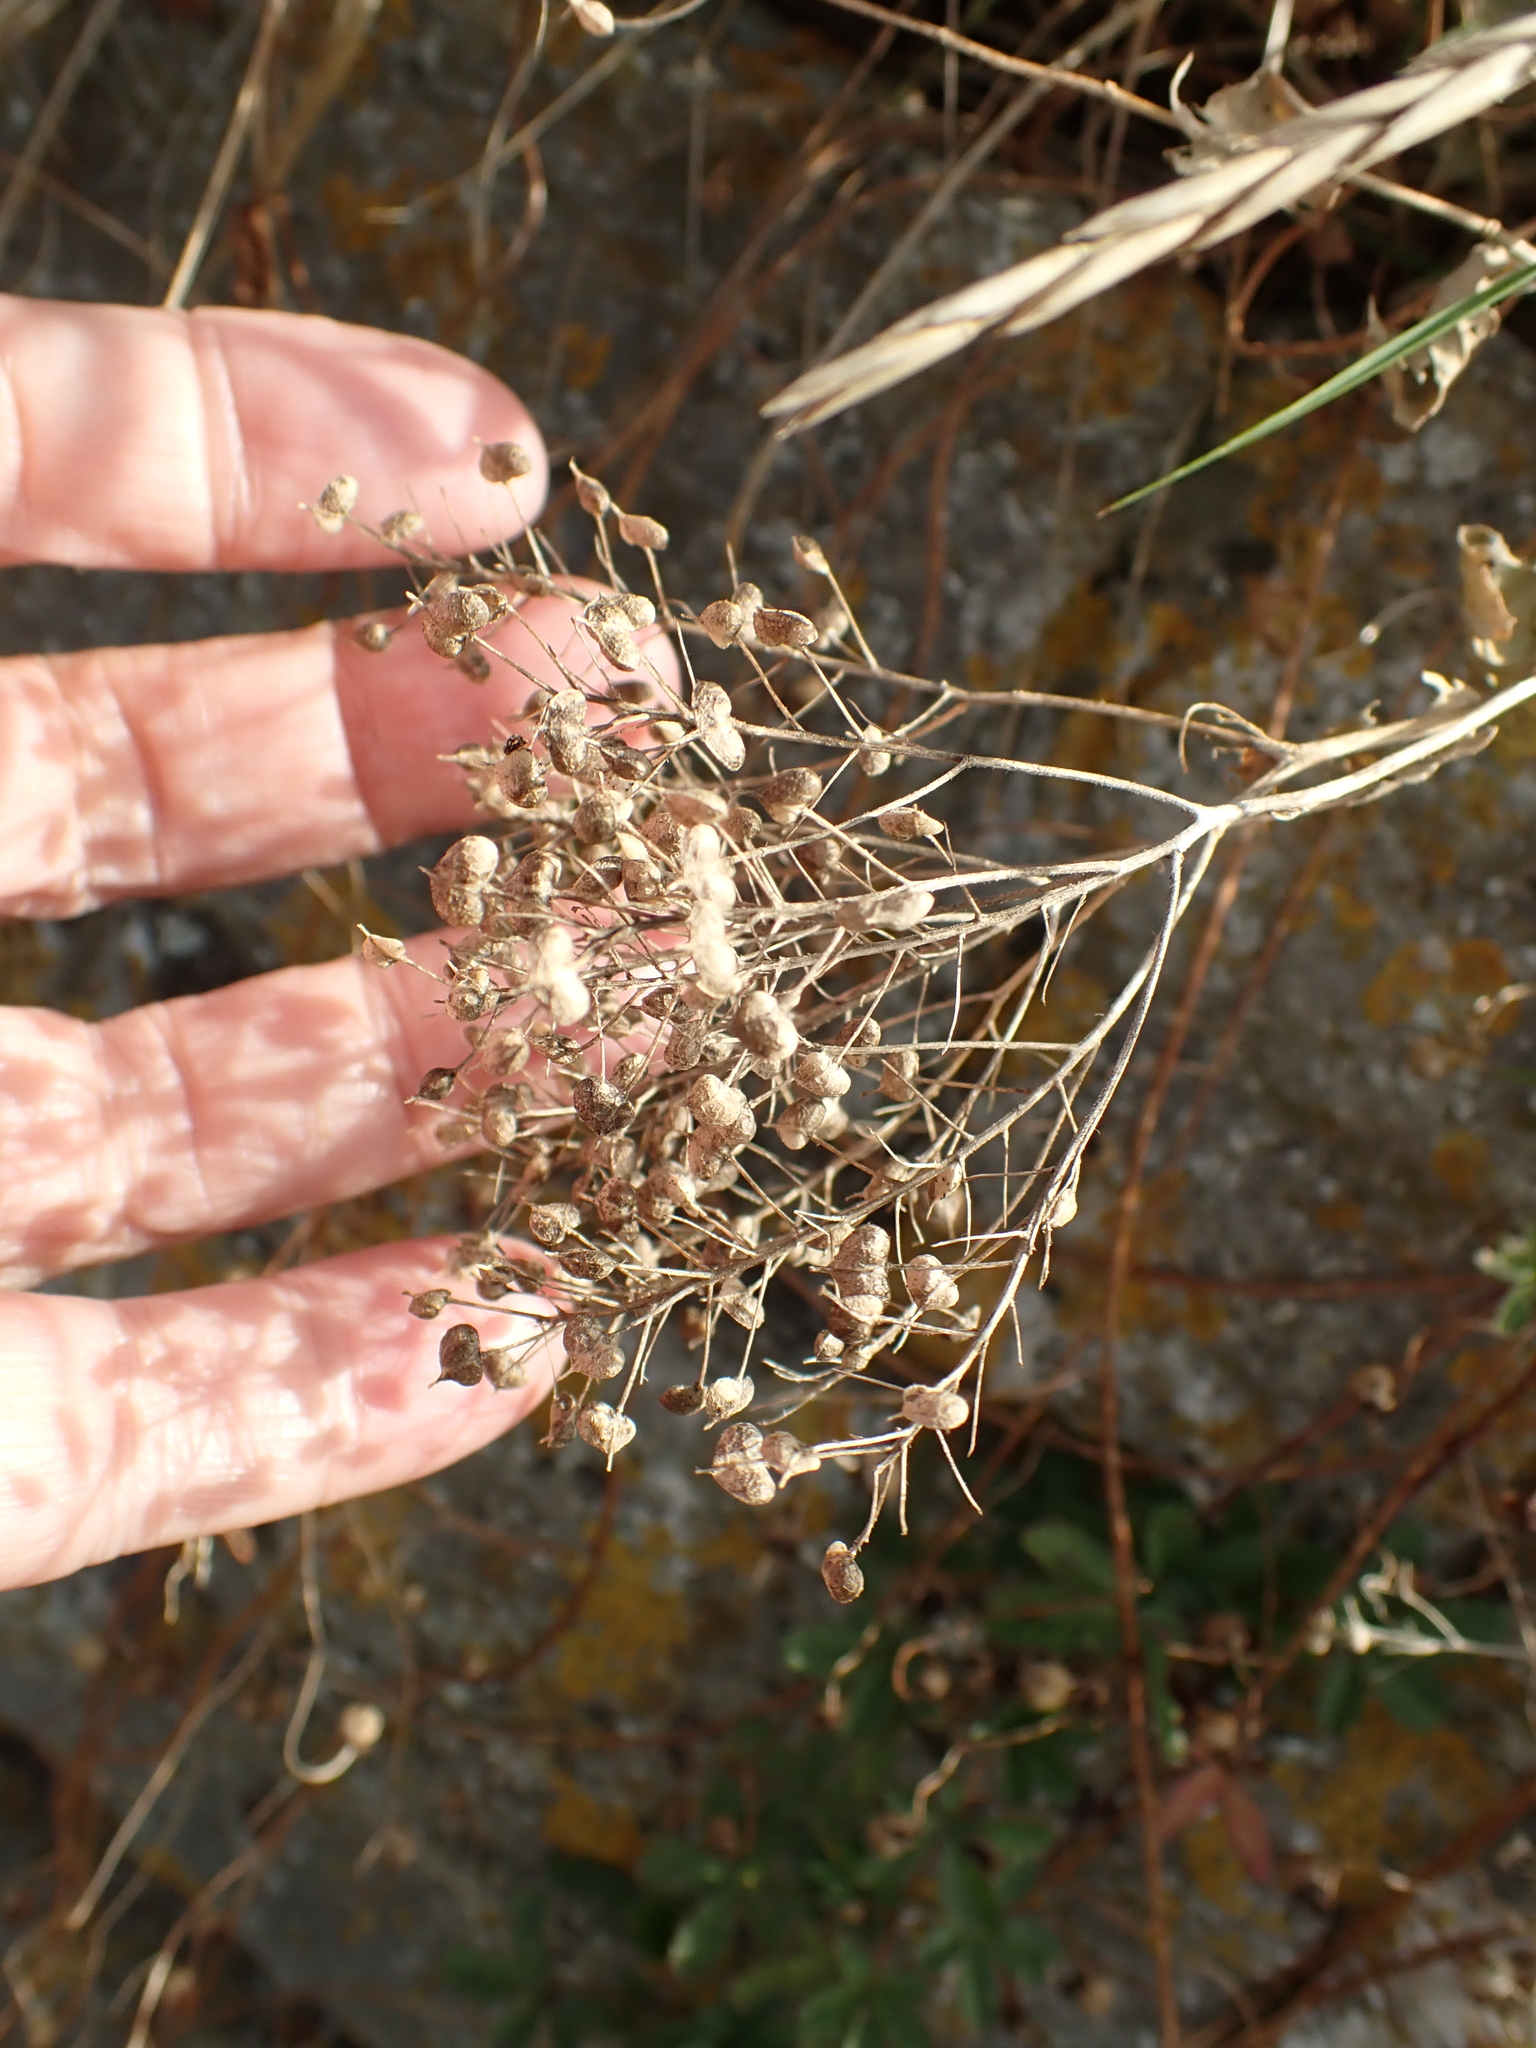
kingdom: Plantae
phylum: Tracheophyta
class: Magnoliopsida
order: Brassicales
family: Brassicaceae
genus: Lepidium
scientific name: Lepidium draba
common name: Hoary cress
